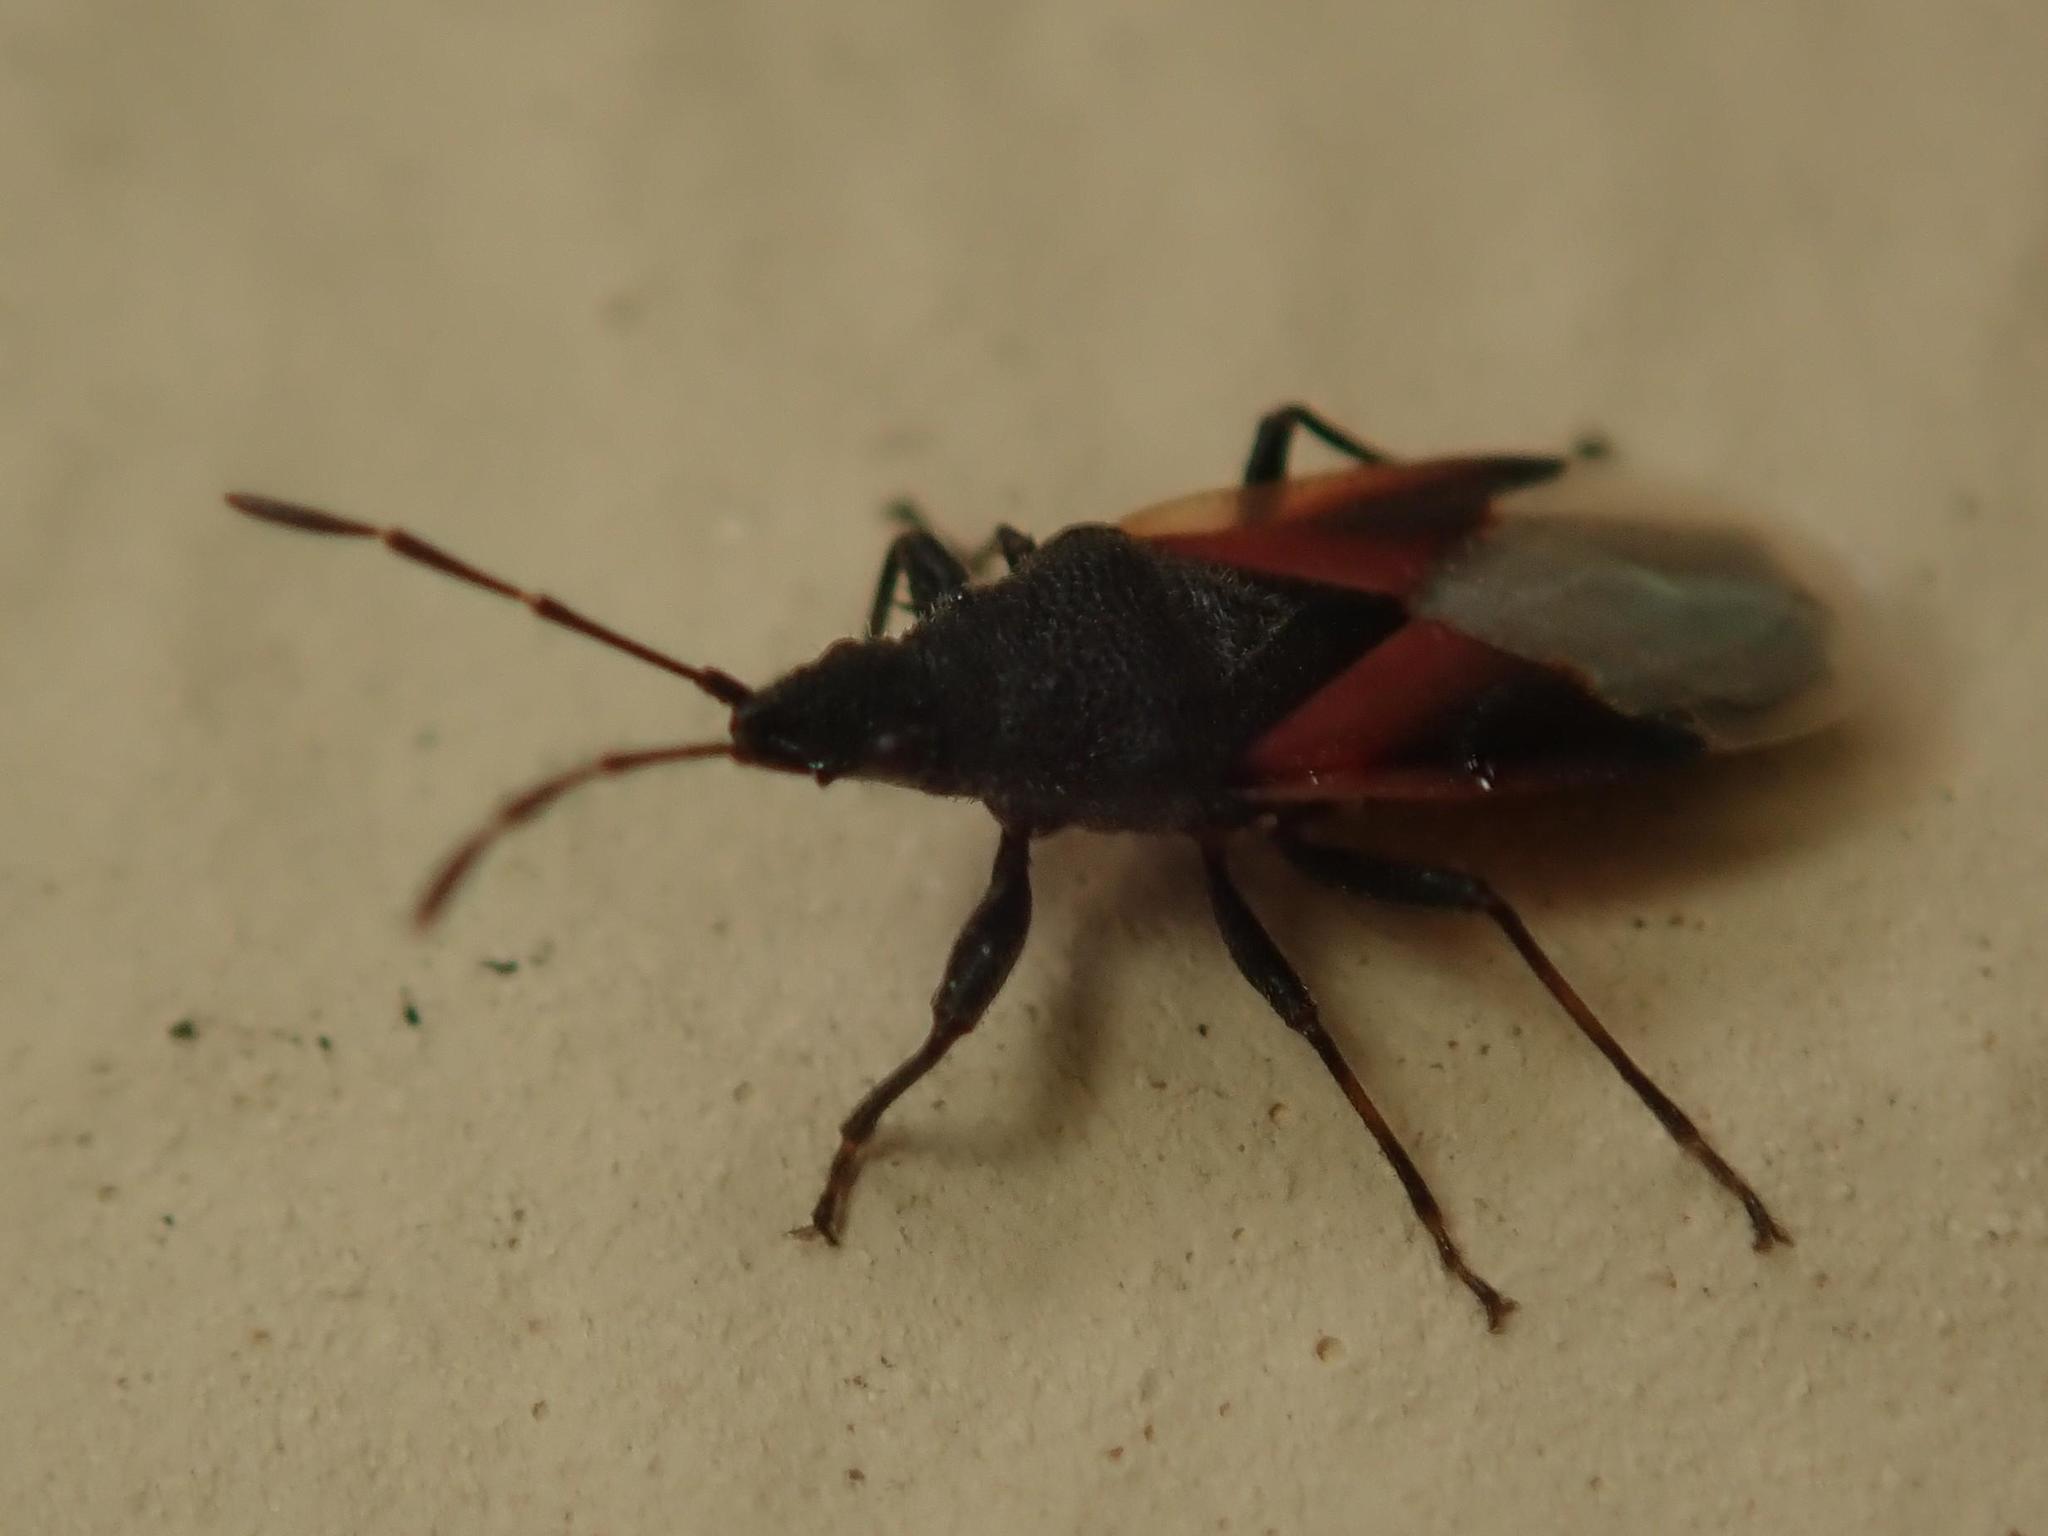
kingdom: Animalia
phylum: Arthropoda
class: Insecta
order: Hemiptera
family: Oxycarenidae
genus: Oxycarenus
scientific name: Oxycarenus lavaterae
